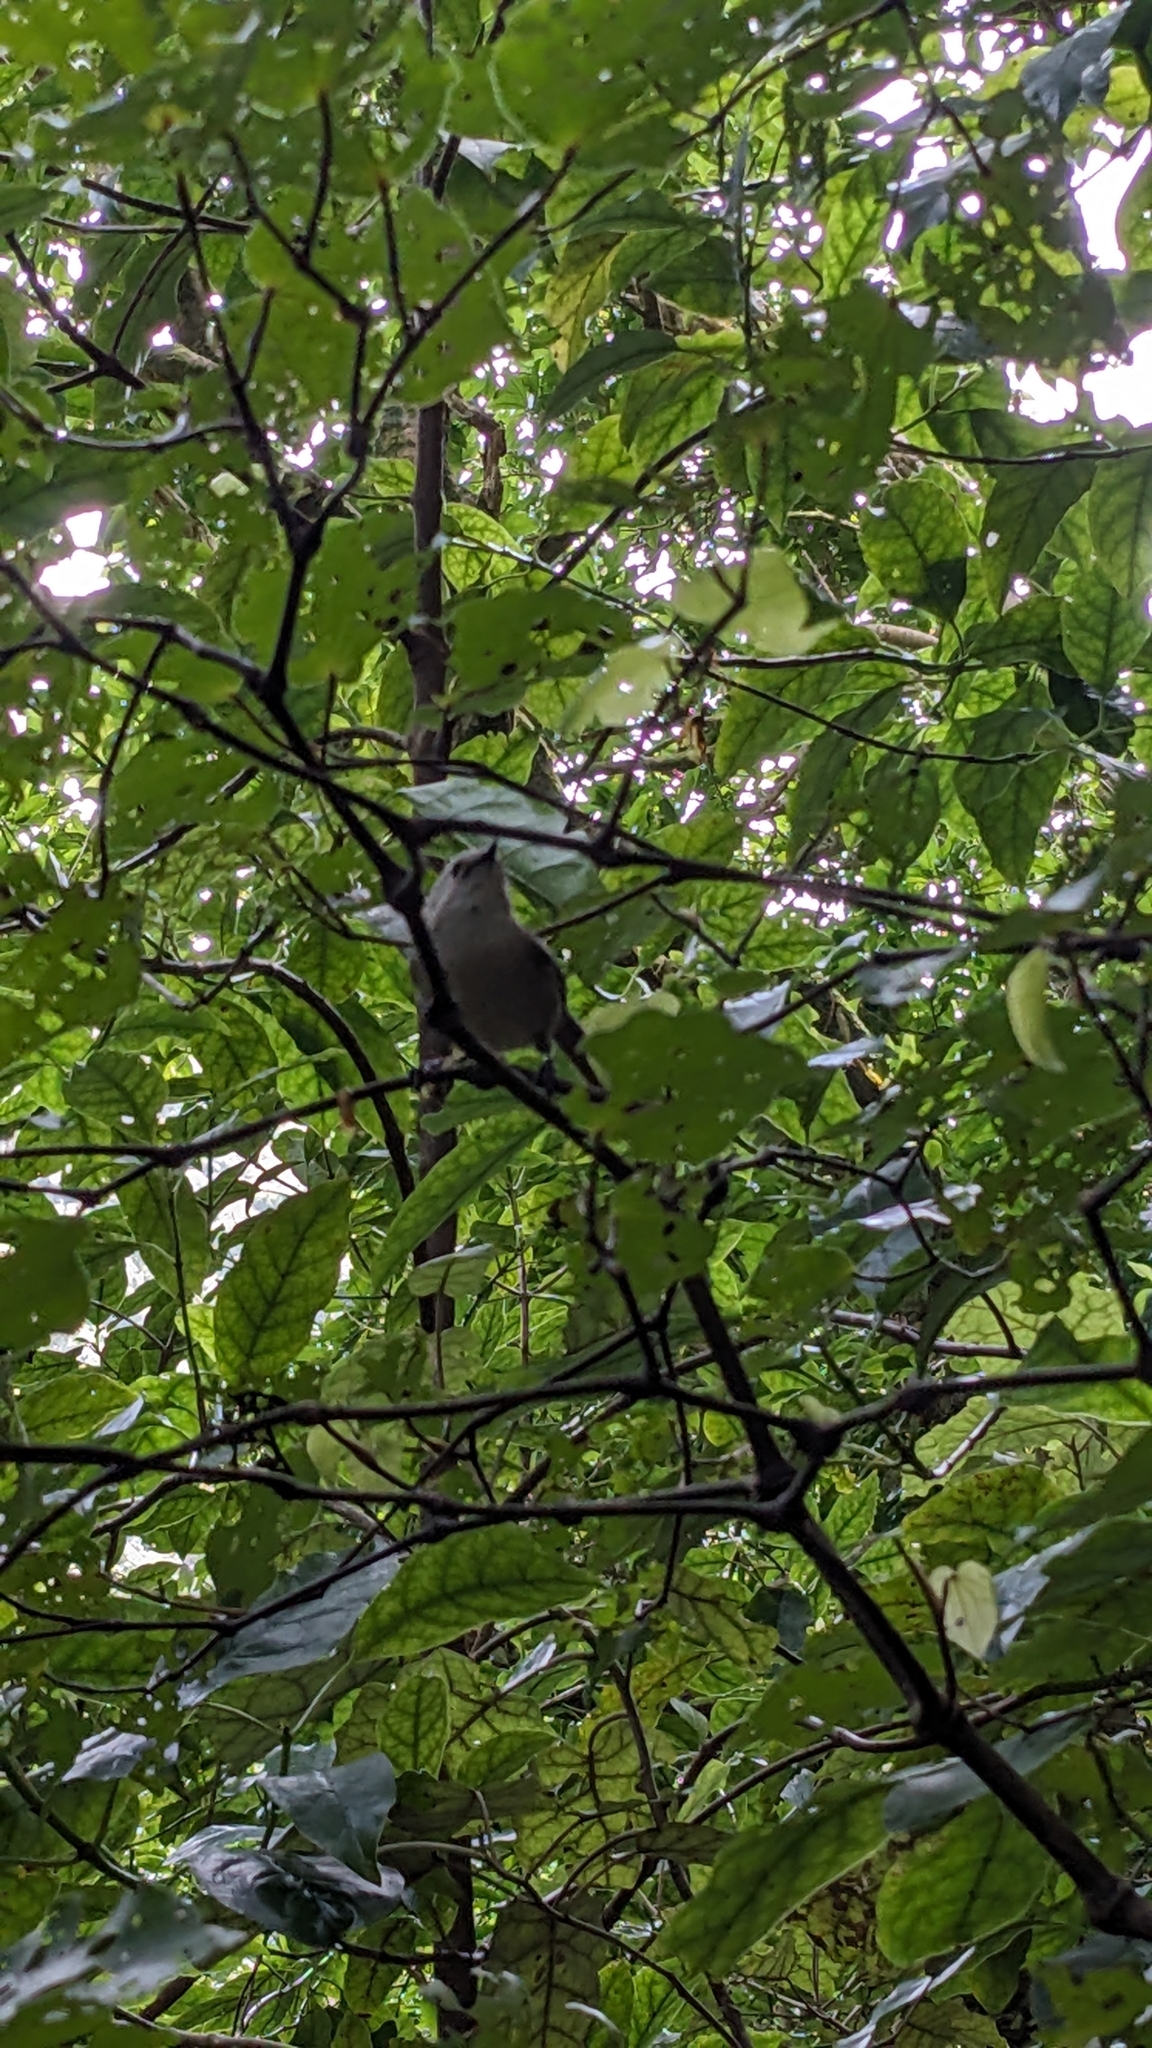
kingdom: Animalia
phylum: Chordata
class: Aves
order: Passeriformes
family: Acanthizidae
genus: Mohoua
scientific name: Mohoua albicilla
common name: Whitehead
